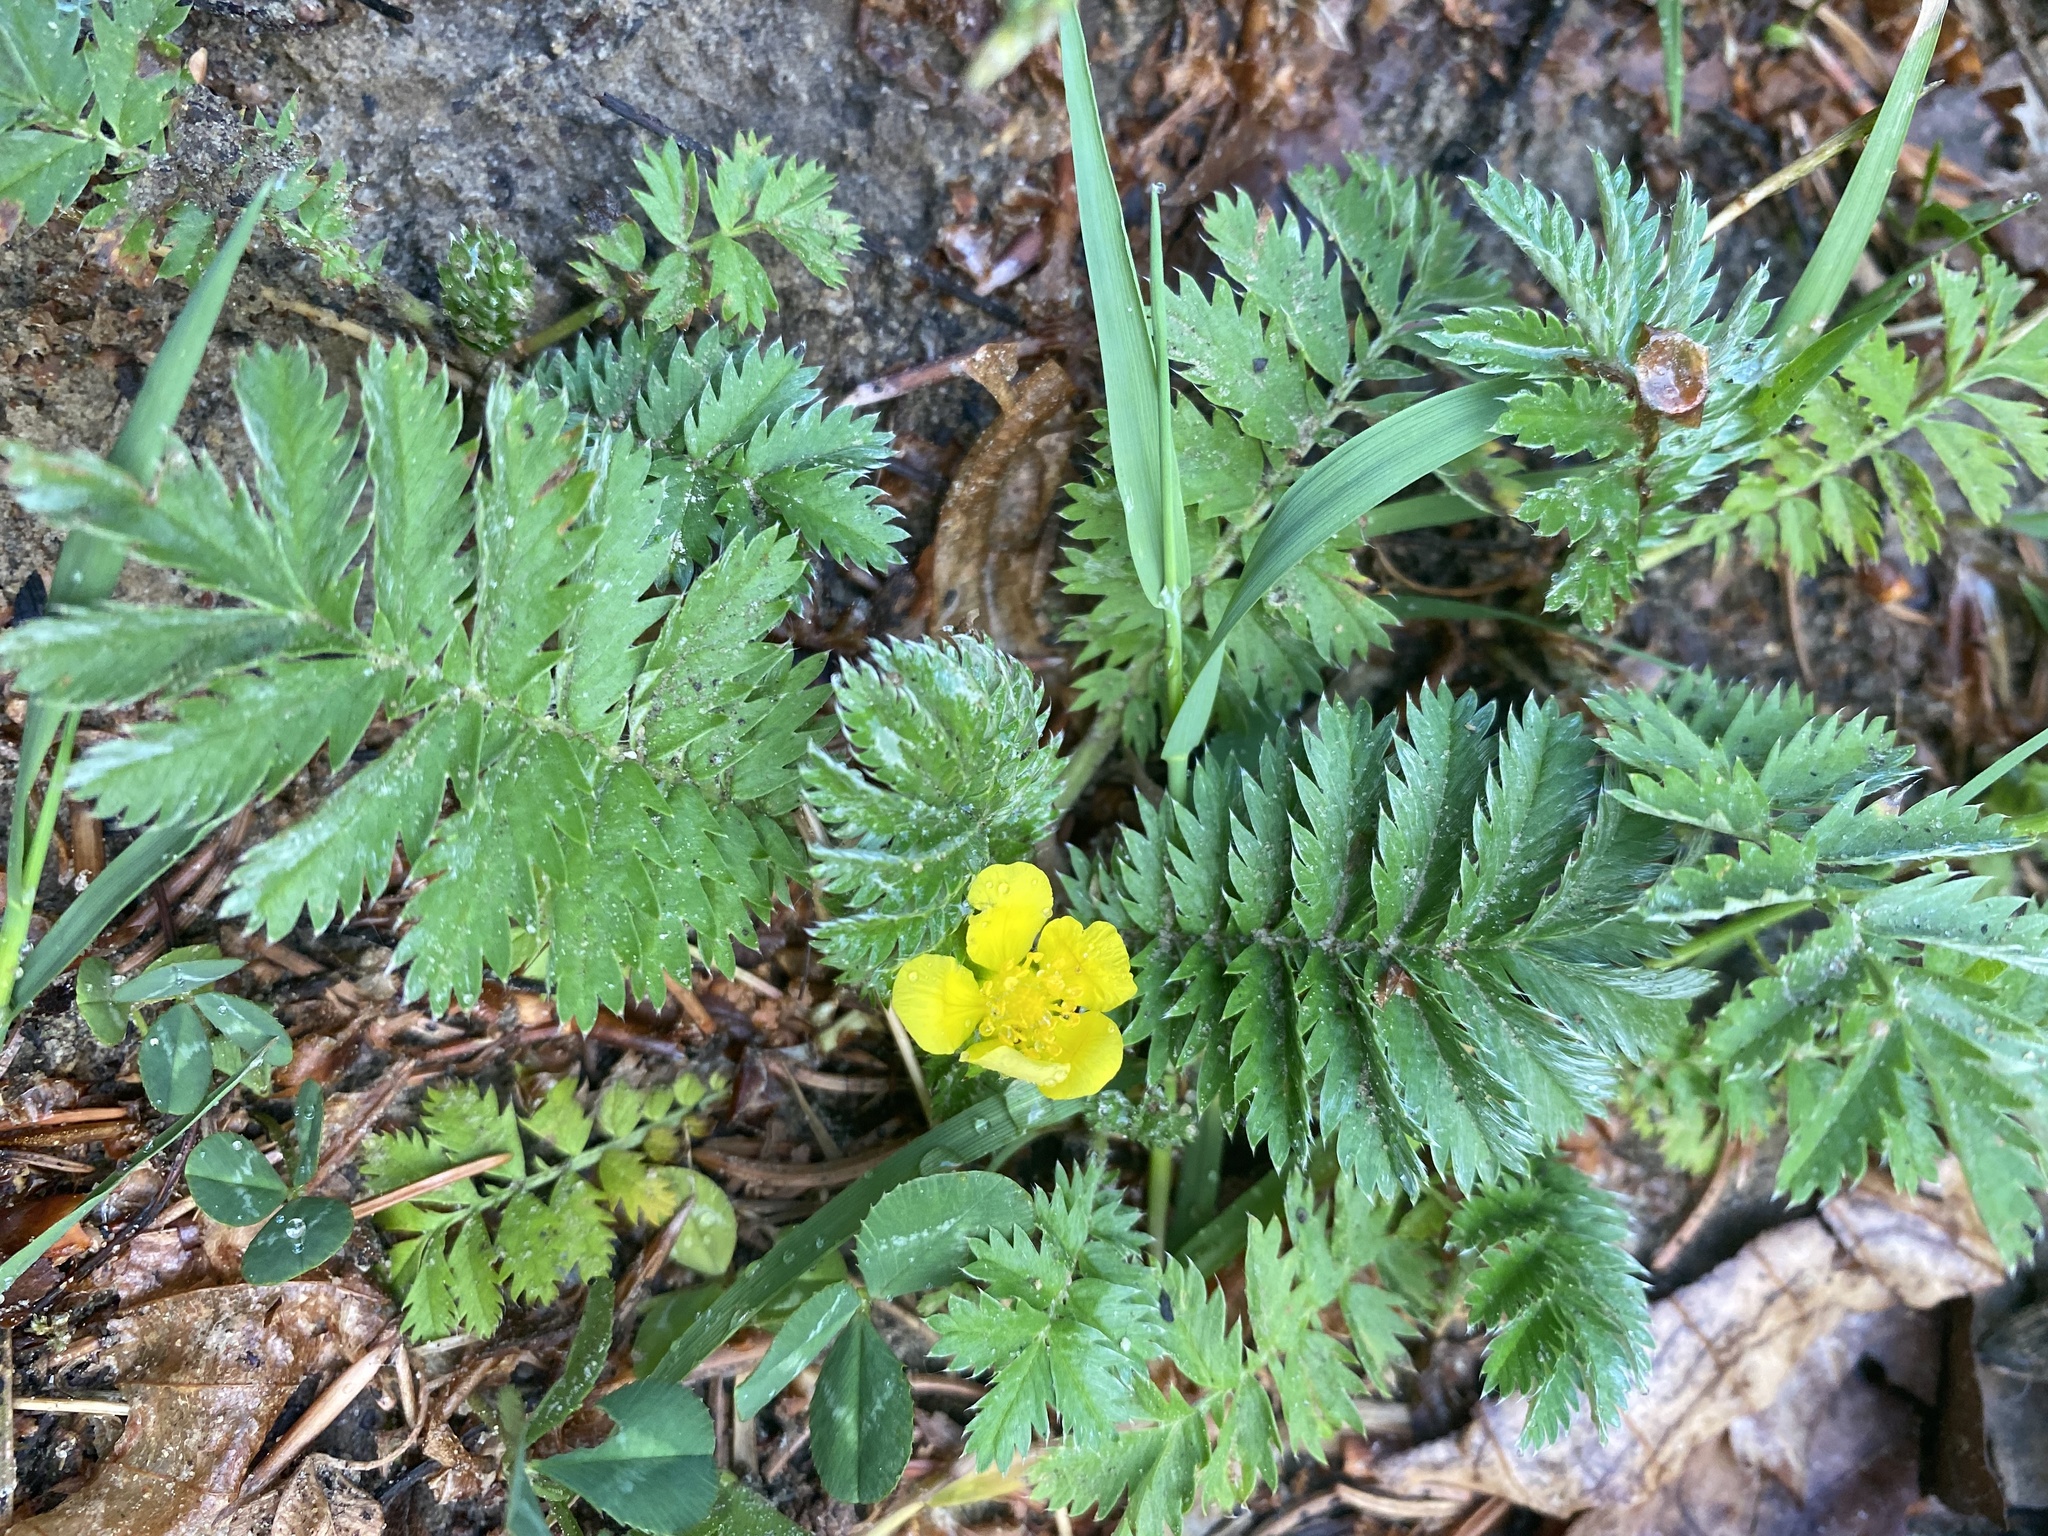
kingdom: Plantae
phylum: Tracheophyta
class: Magnoliopsida
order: Rosales
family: Rosaceae
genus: Argentina
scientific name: Argentina anserina
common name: Common silverweed
